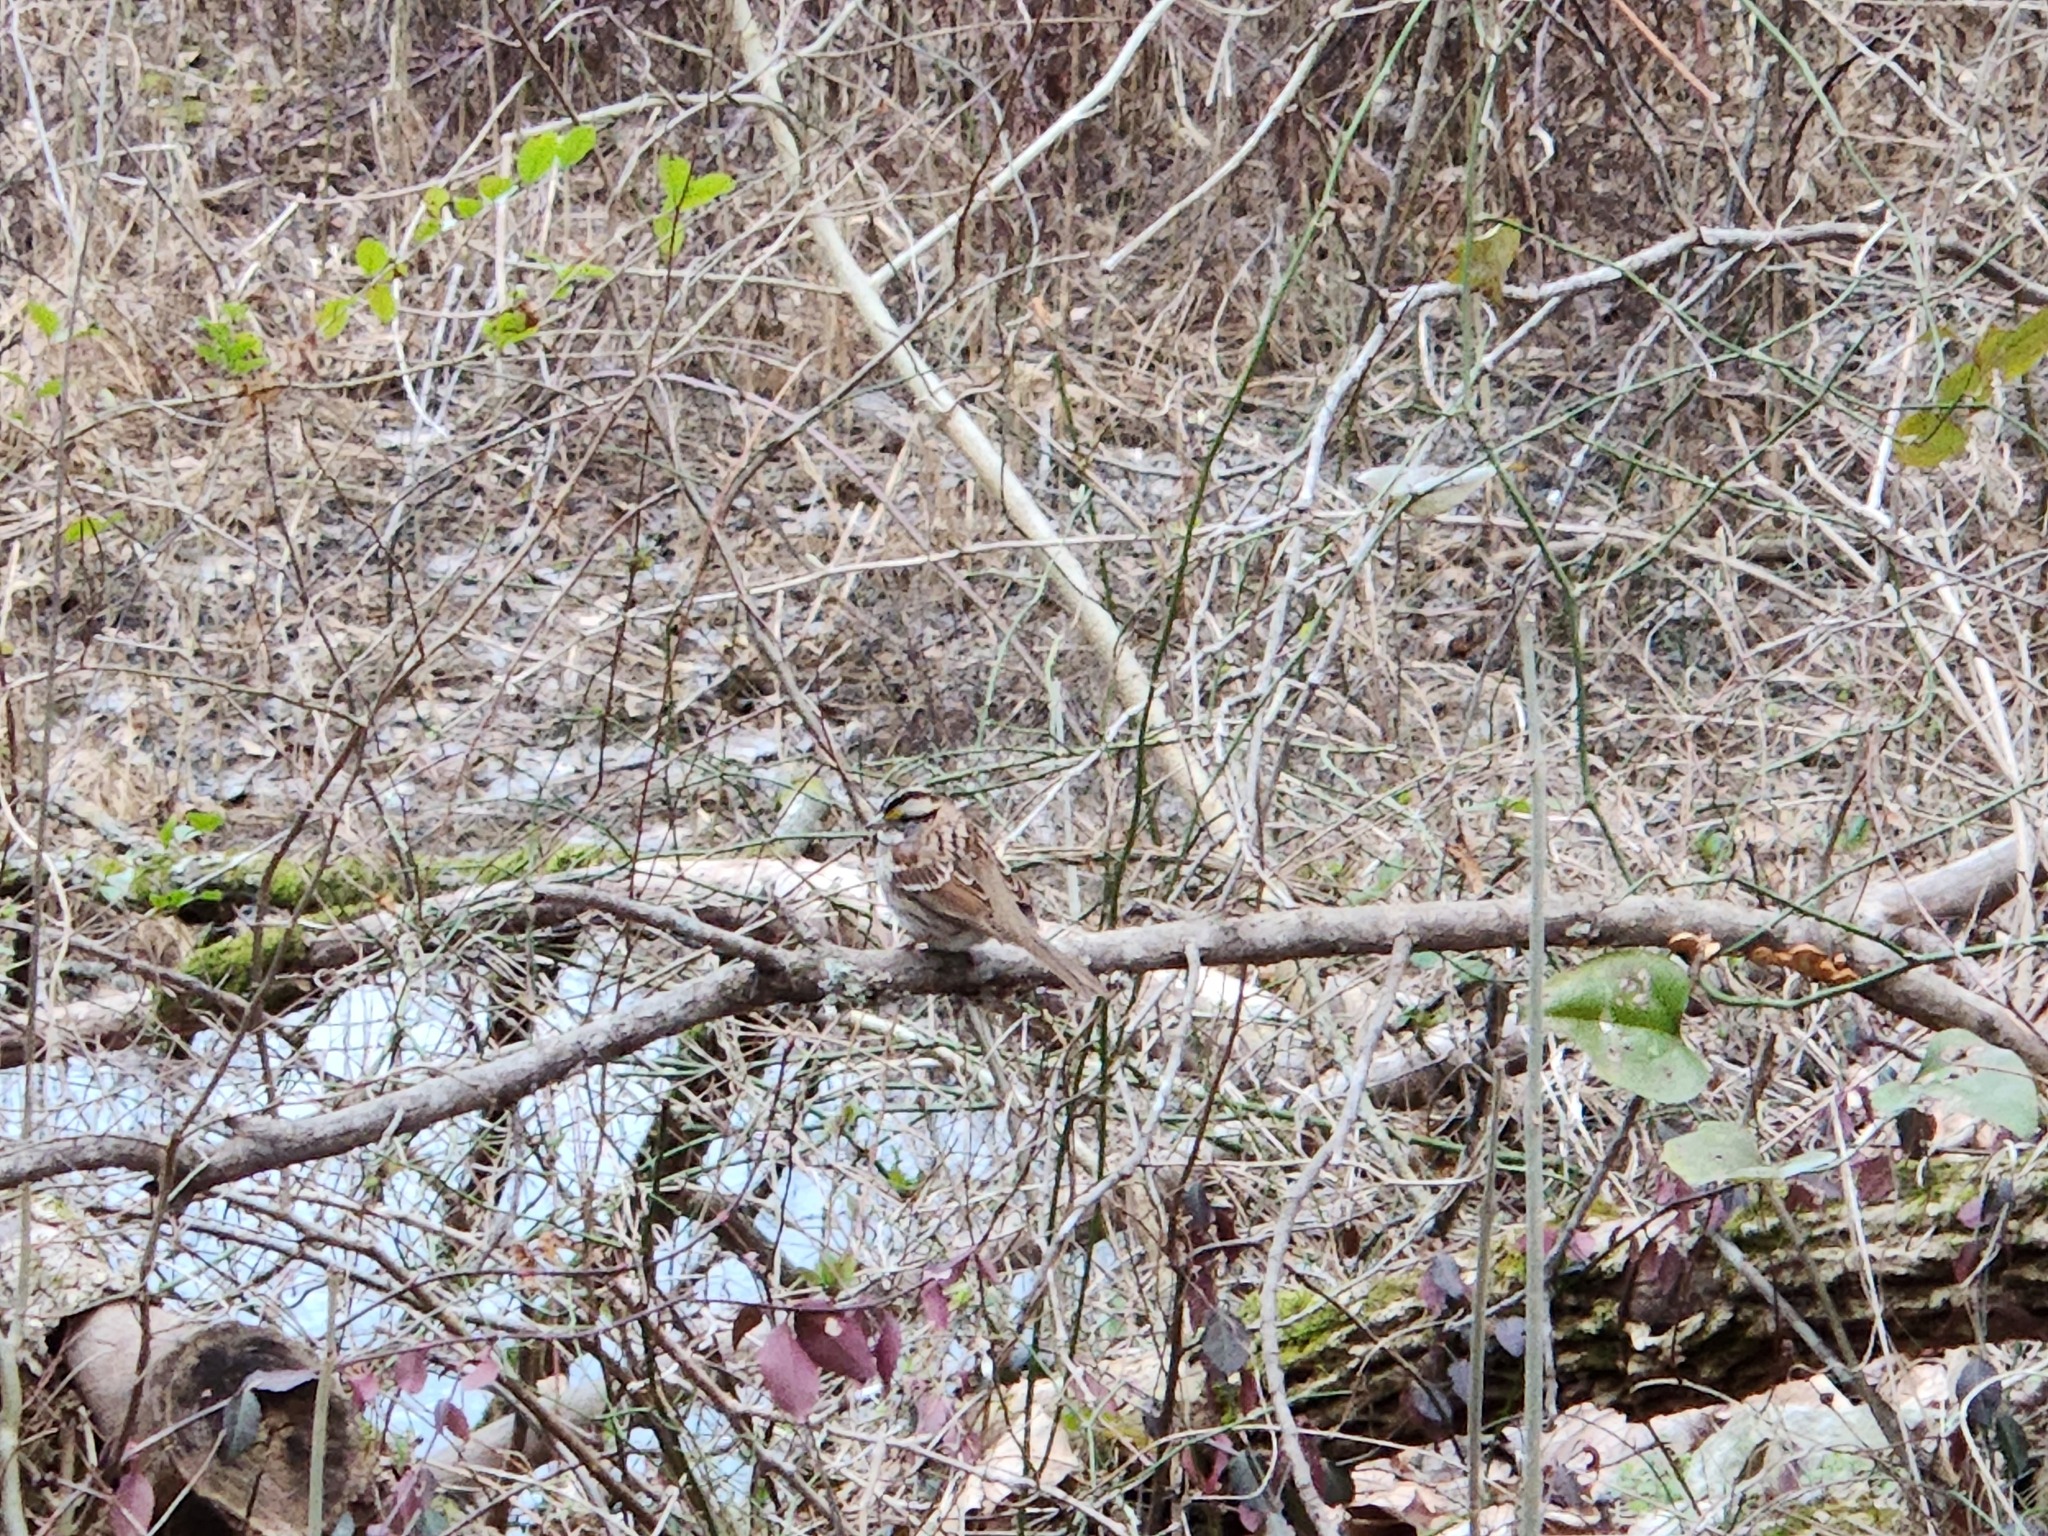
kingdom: Animalia
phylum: Chordata
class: Aves
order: Passeriformes
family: Passerellidae
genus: Zonotrichia
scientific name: Zonotrichia albicollis
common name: White-throated sparrow
